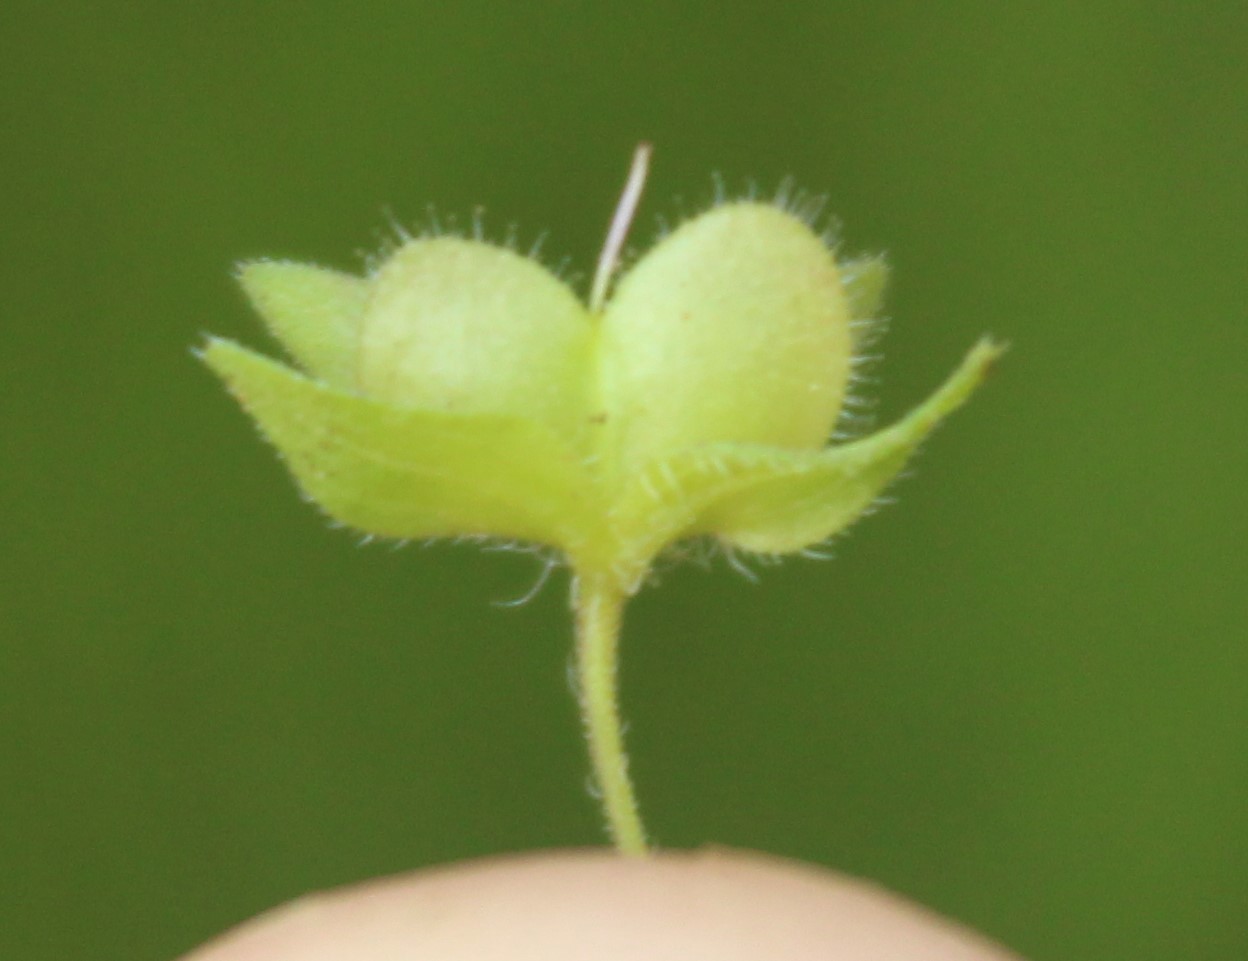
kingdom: Plantae
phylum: Tracheophyta
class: Magnoliopsida
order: Lamiales
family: Plantaginaceae
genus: Veronica
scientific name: Veronica persica
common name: Common field-speedwell
